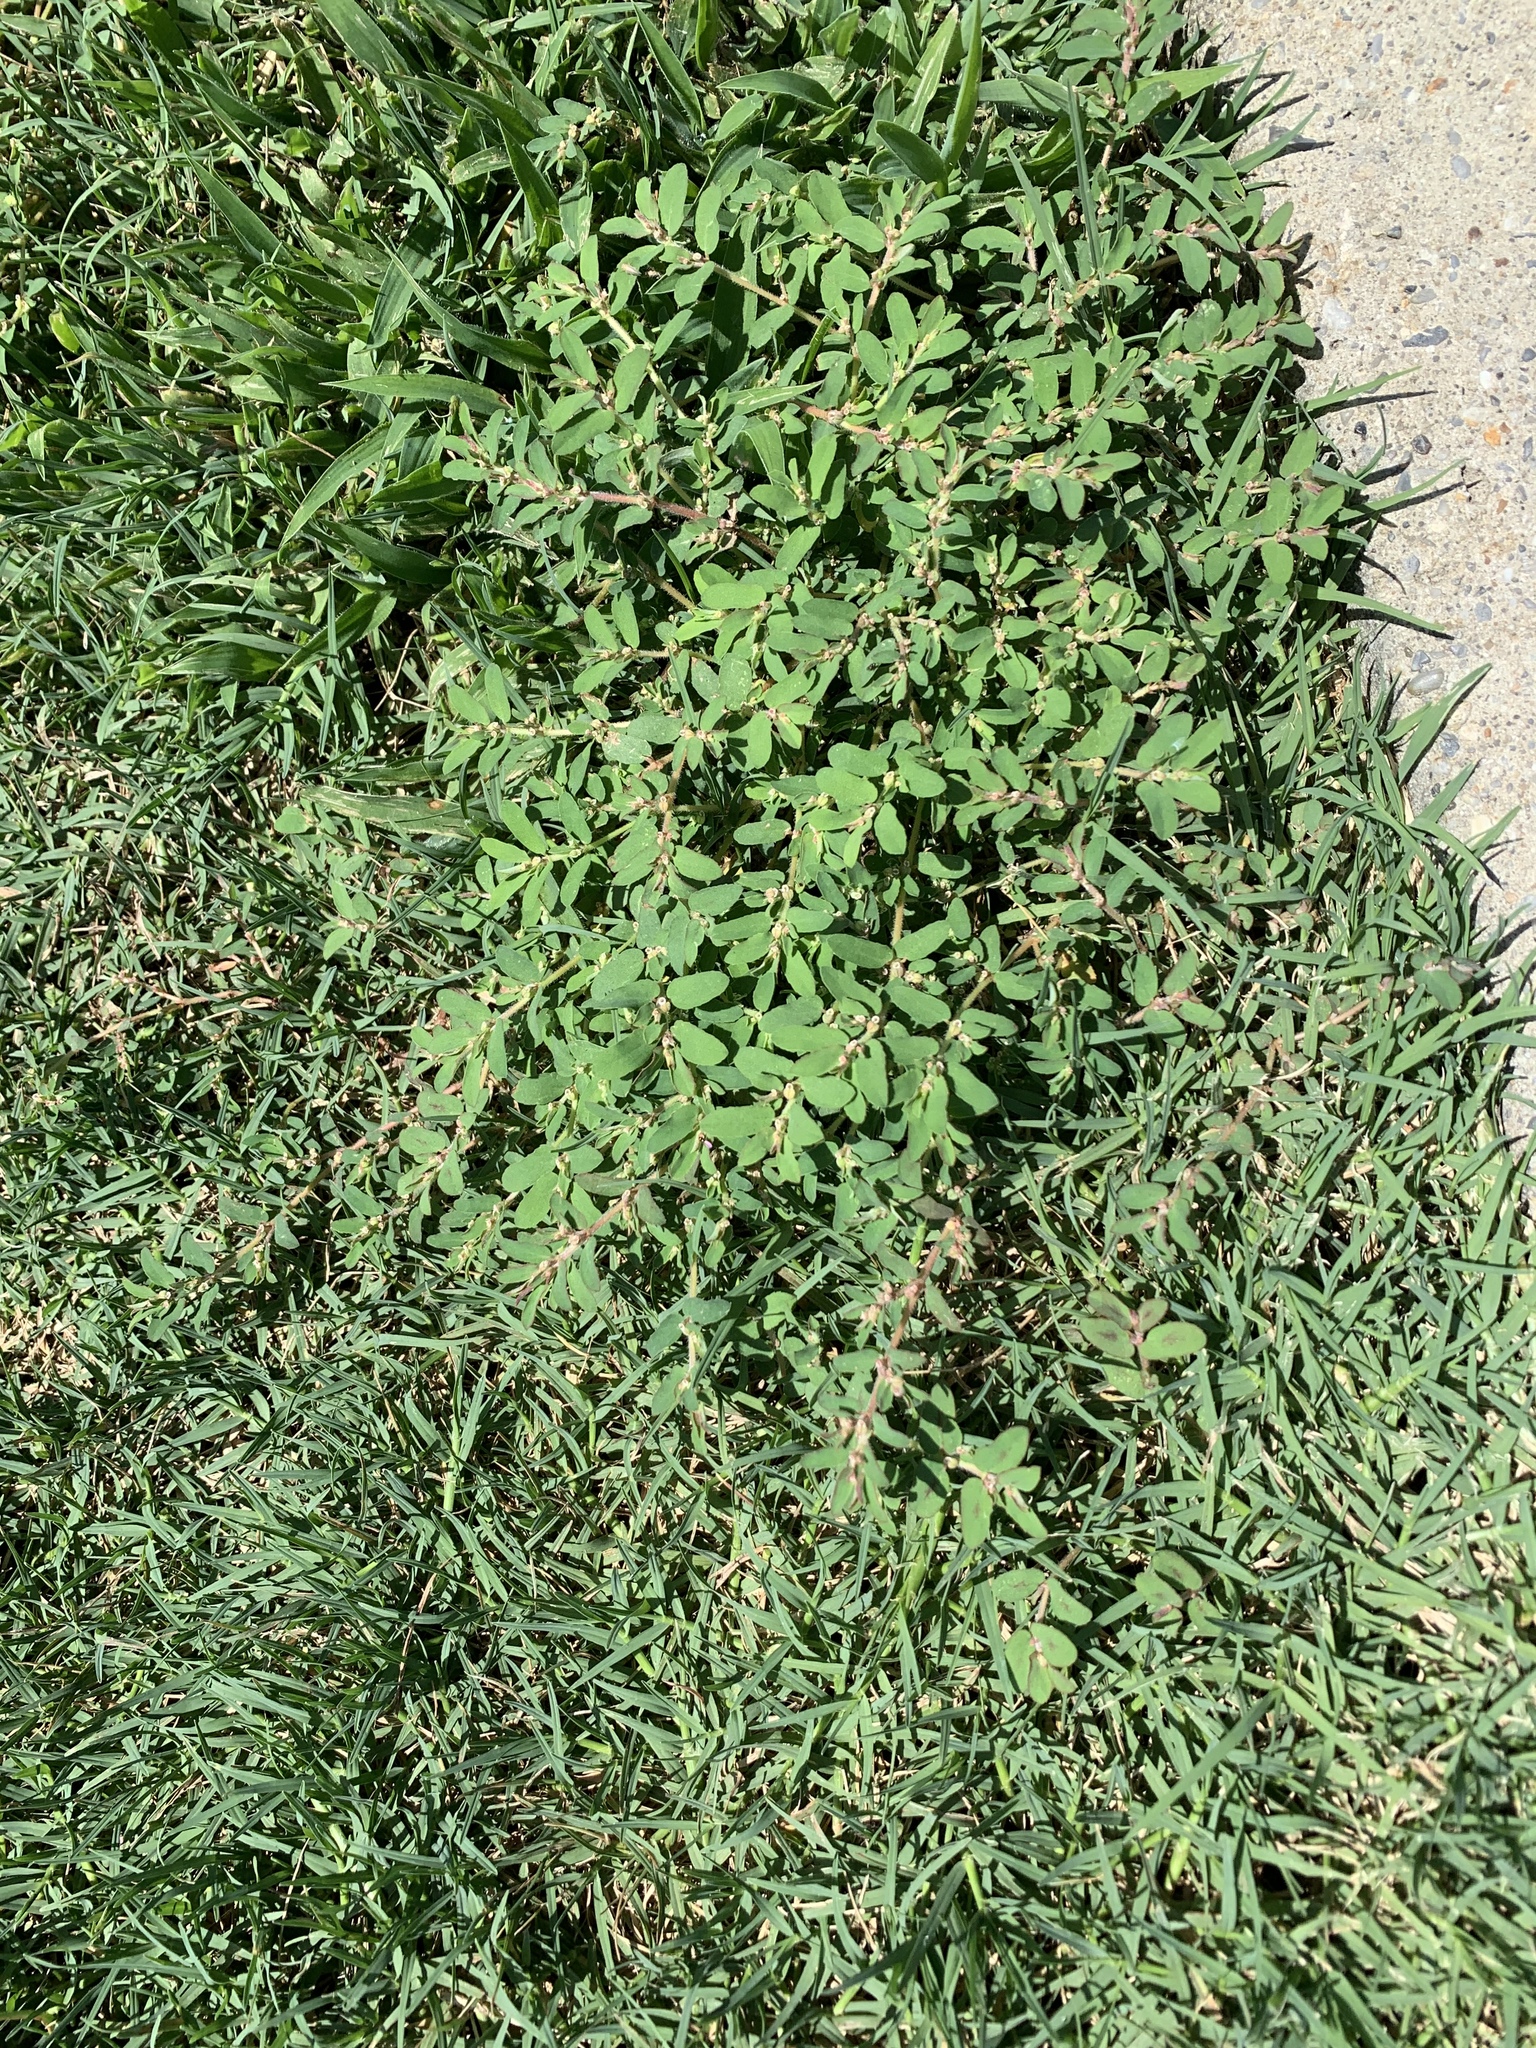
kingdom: Plantae
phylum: Tracheophyta
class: Magnoliopsida
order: Malpighiales
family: Euphorbiaceae
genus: Euphorbia
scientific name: Euphorbia maculata
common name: Spotted spurge
